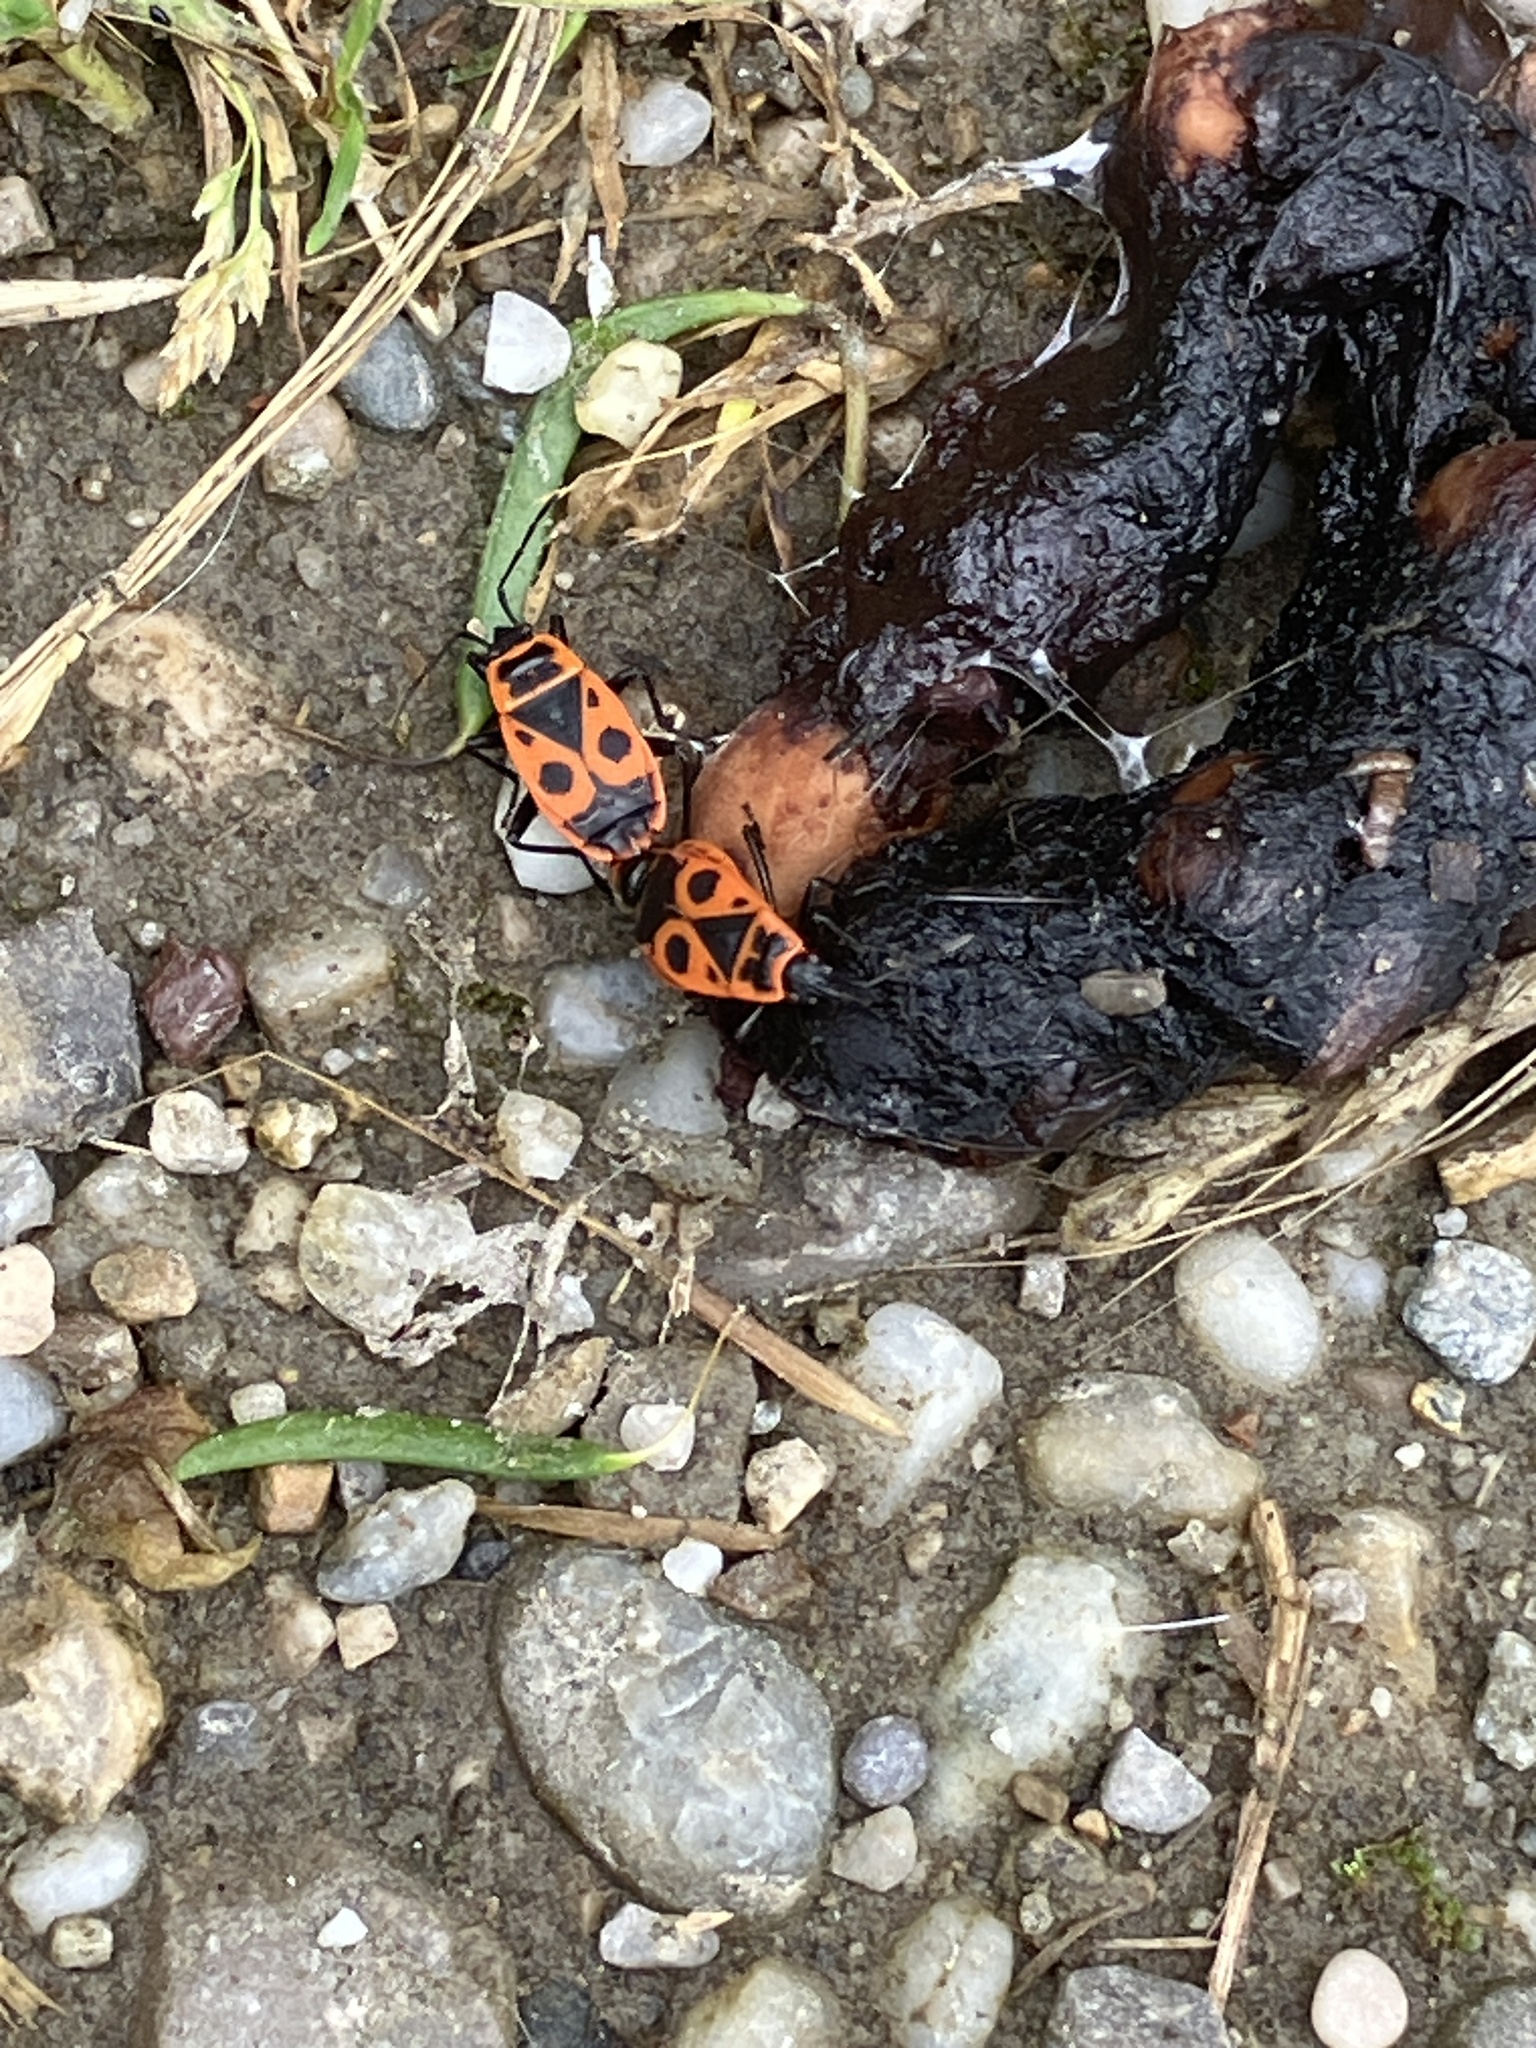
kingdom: Animalia
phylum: Arthropoda
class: Insecta
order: Hemiptera
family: Pyrrhocoridae
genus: Pyrrhocoris
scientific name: Pyrrhocoris apterus
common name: Firebug
